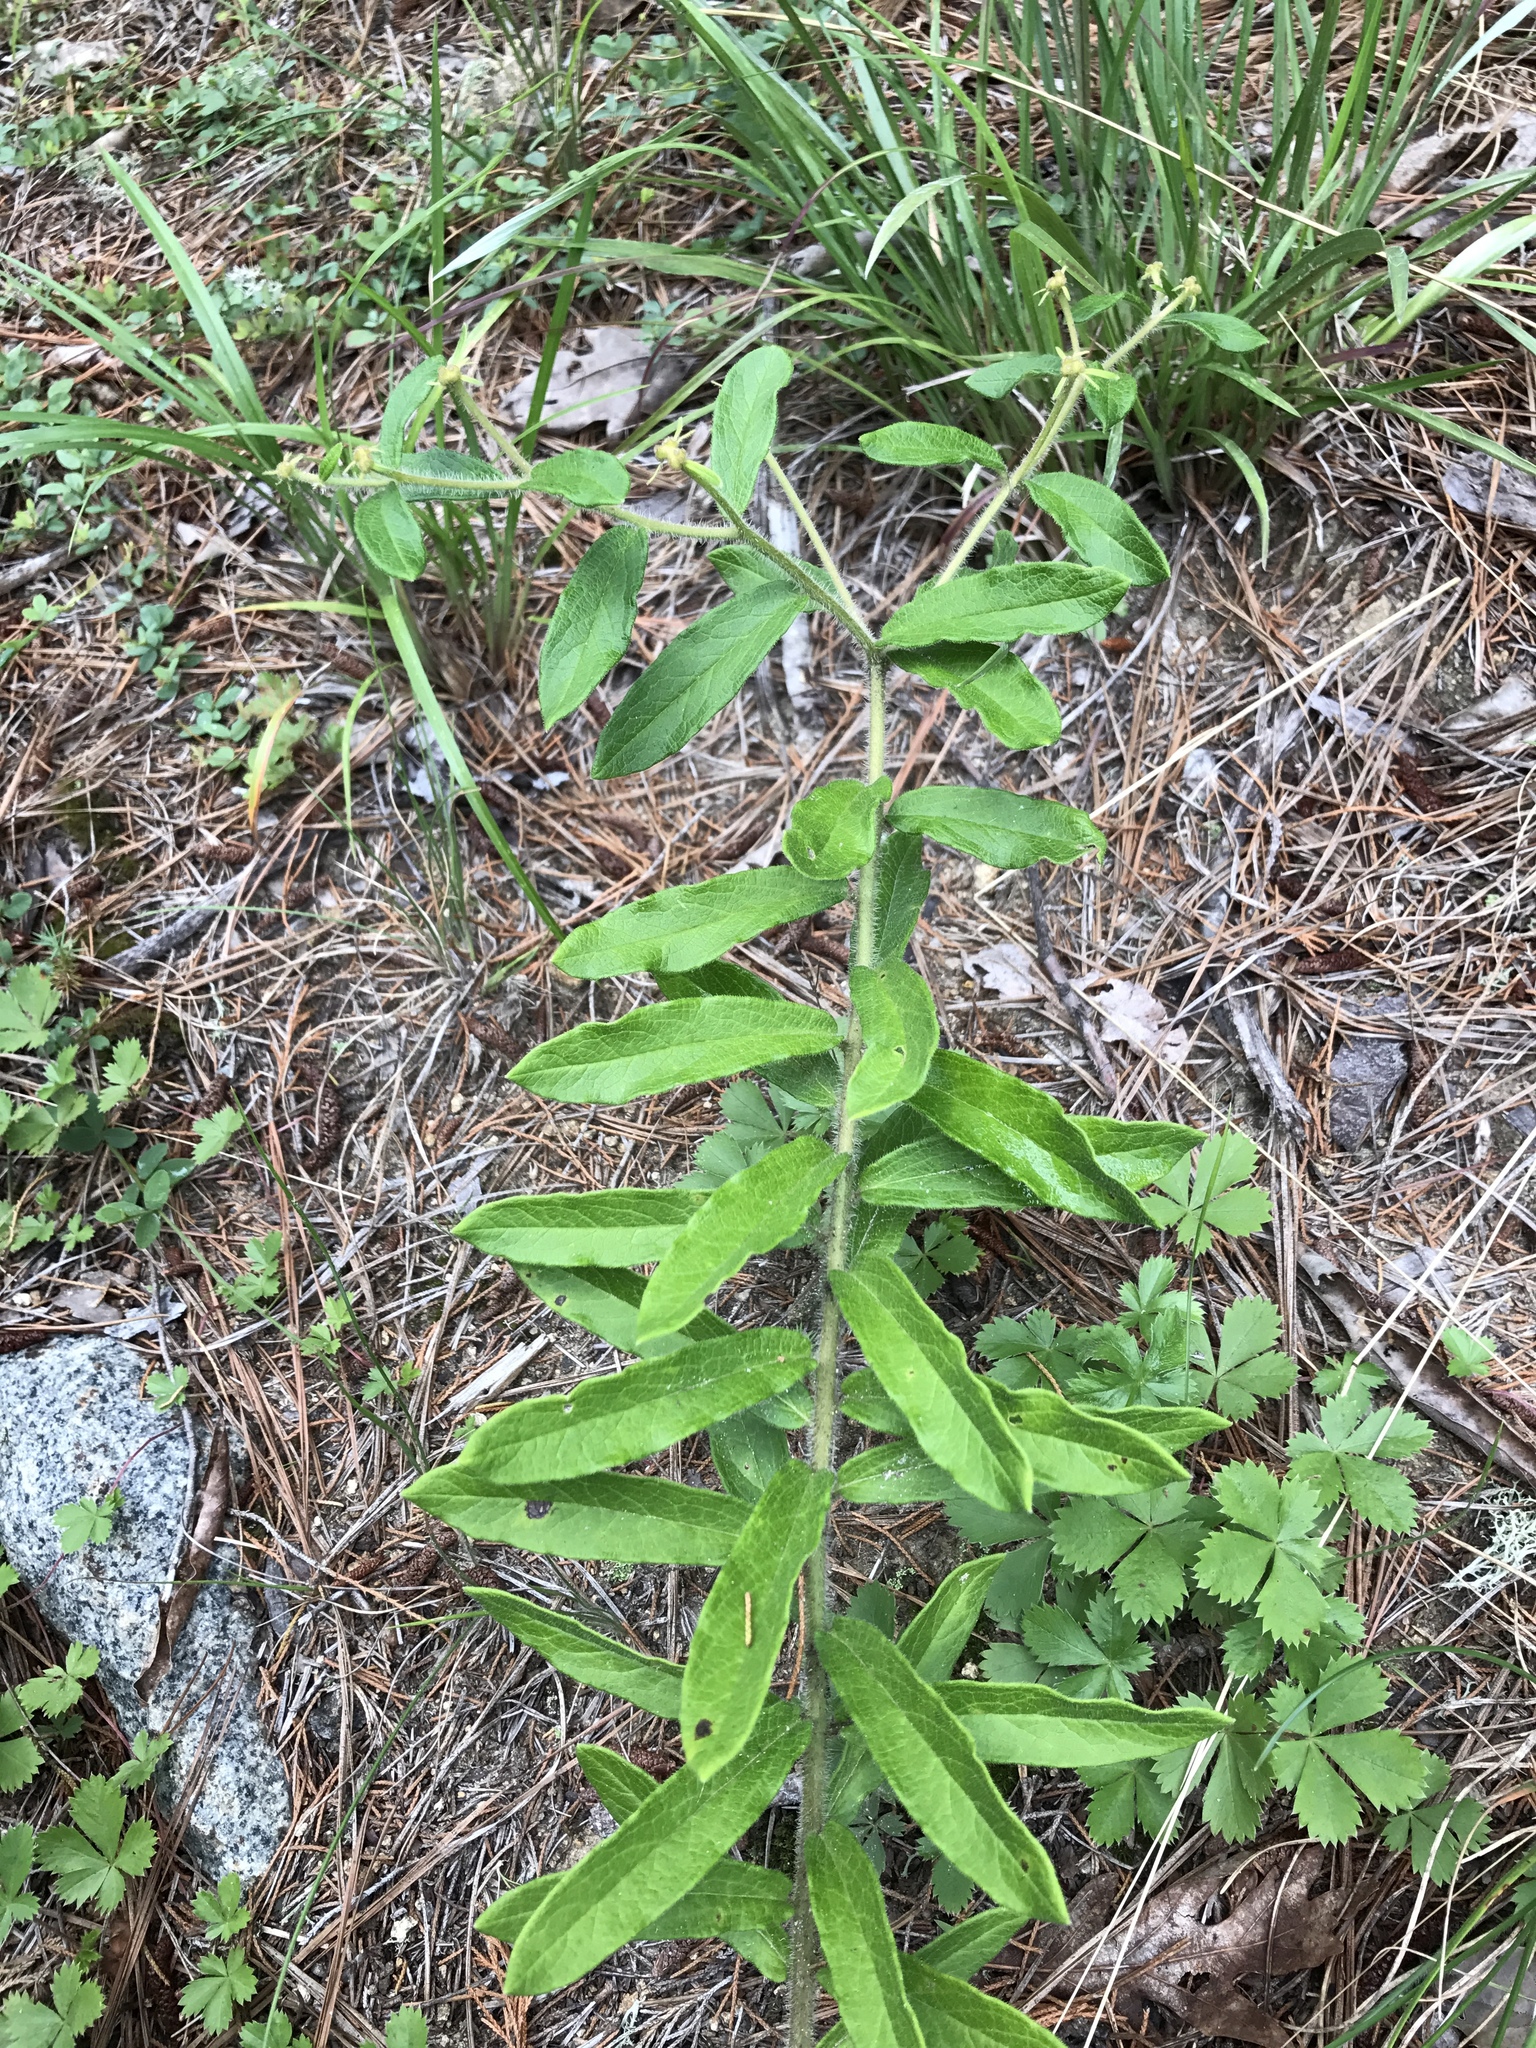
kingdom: Plantae
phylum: Tracheophyta
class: Magnoliopsida
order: Gentianales
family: Apocynaceae
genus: Asclepias
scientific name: Asclepias tuberosa
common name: Butterfly milkweed
